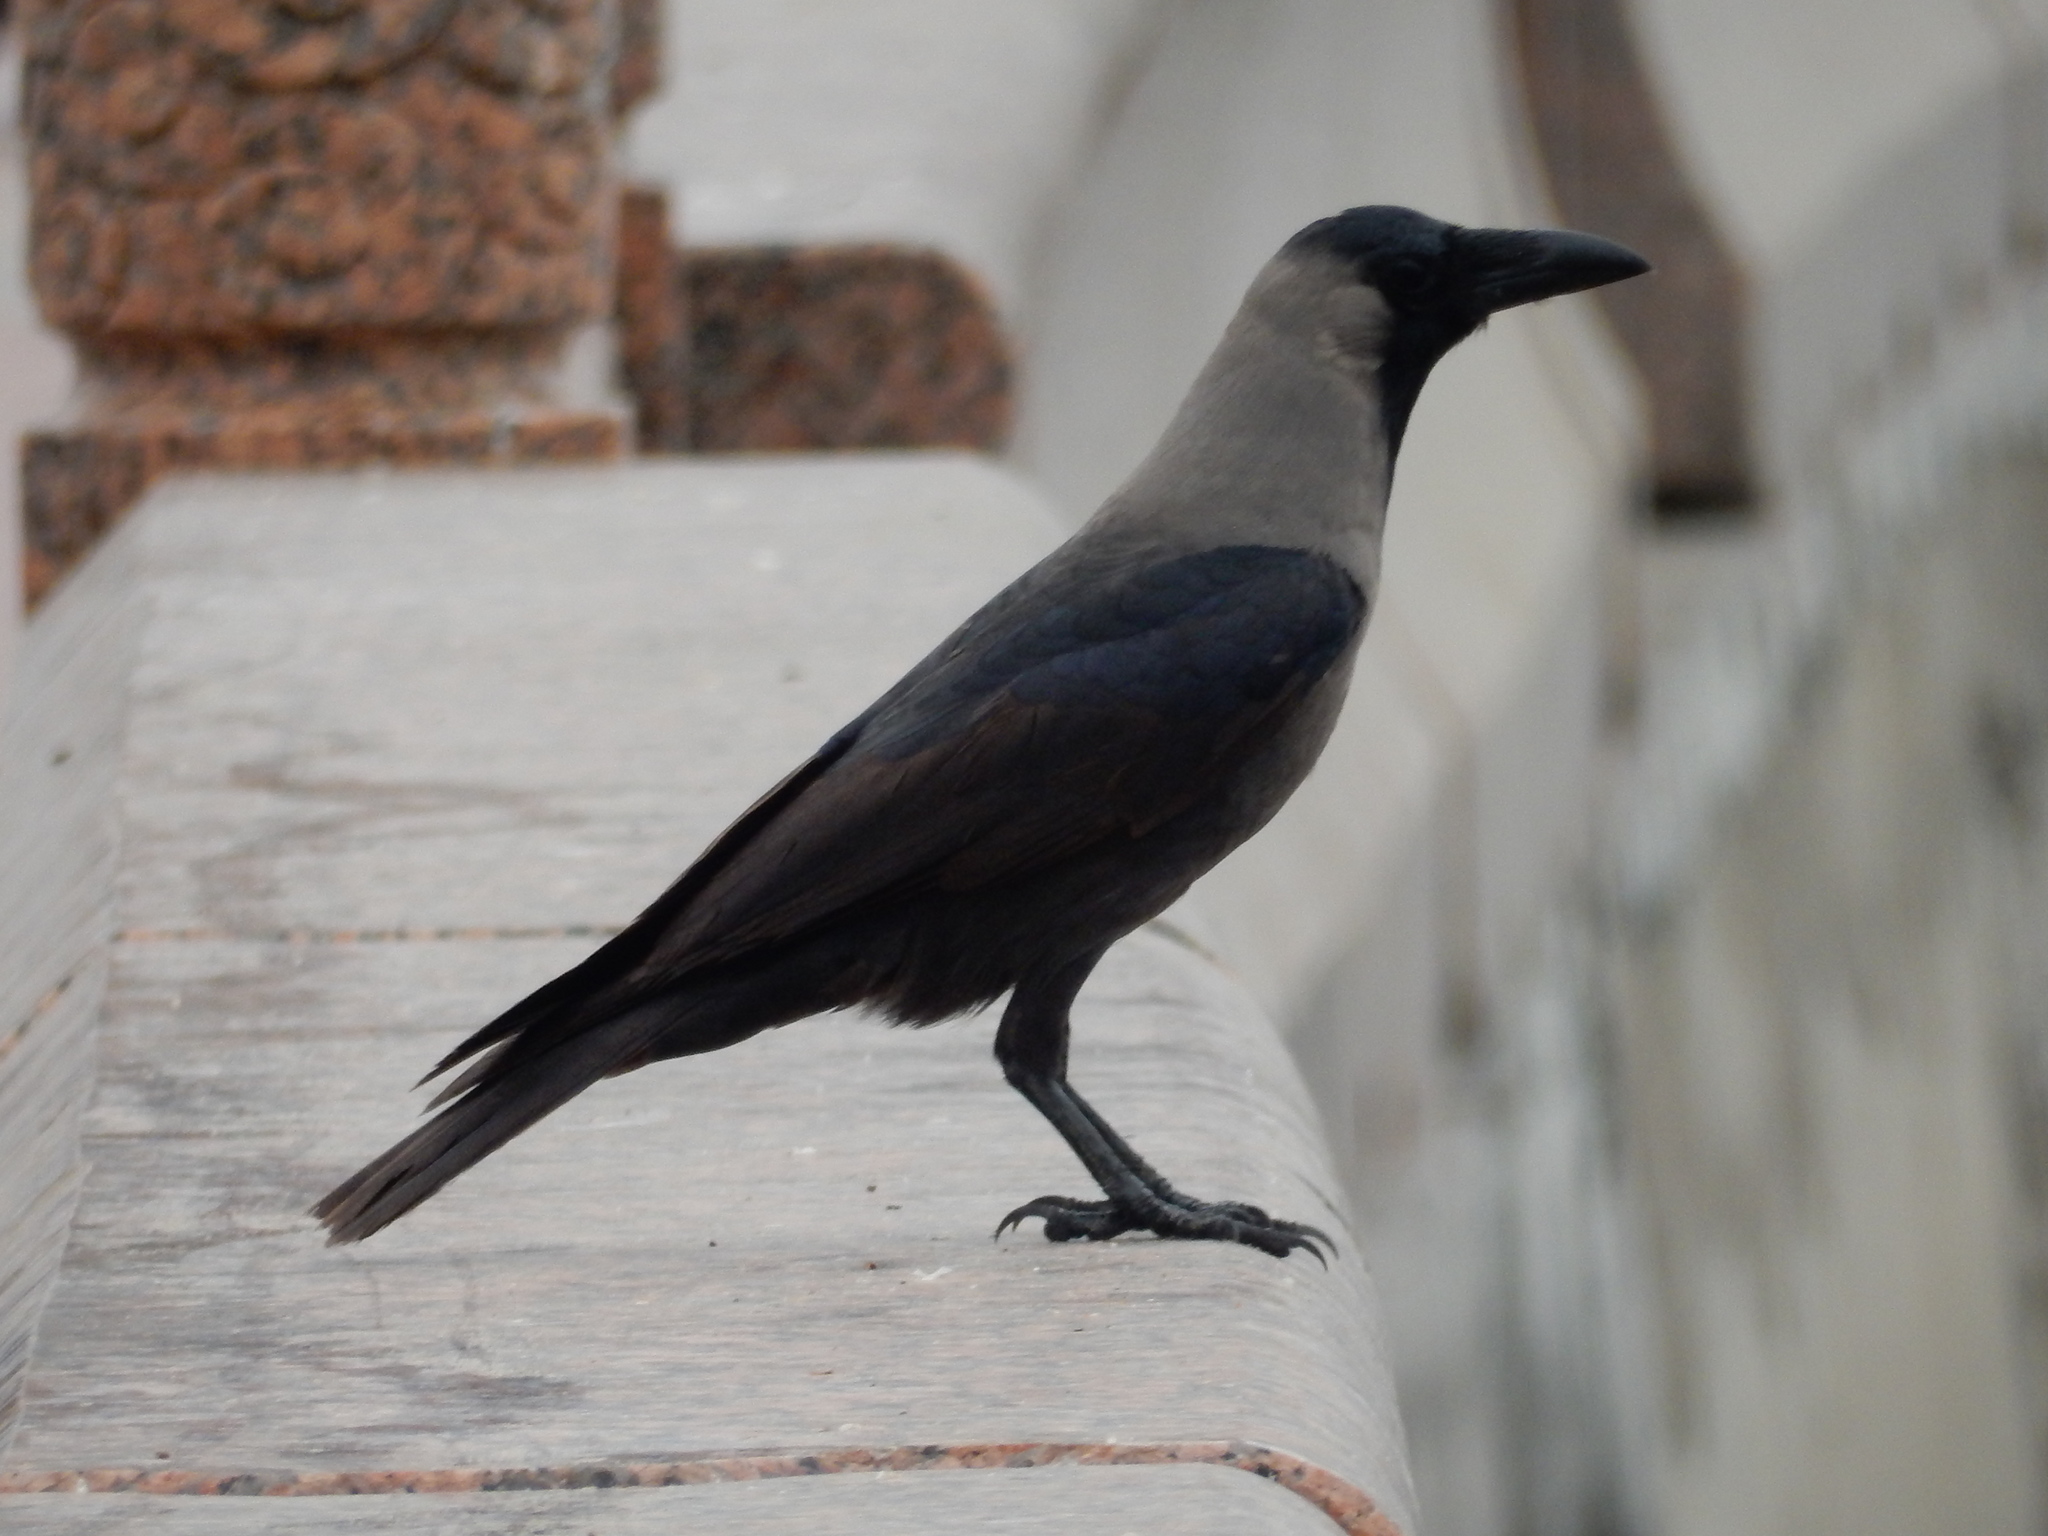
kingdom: Animalia
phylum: Chordata
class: Aves
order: Passeriformes
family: Corvidae
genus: Corvus
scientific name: Corvus splendens
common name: House crow
